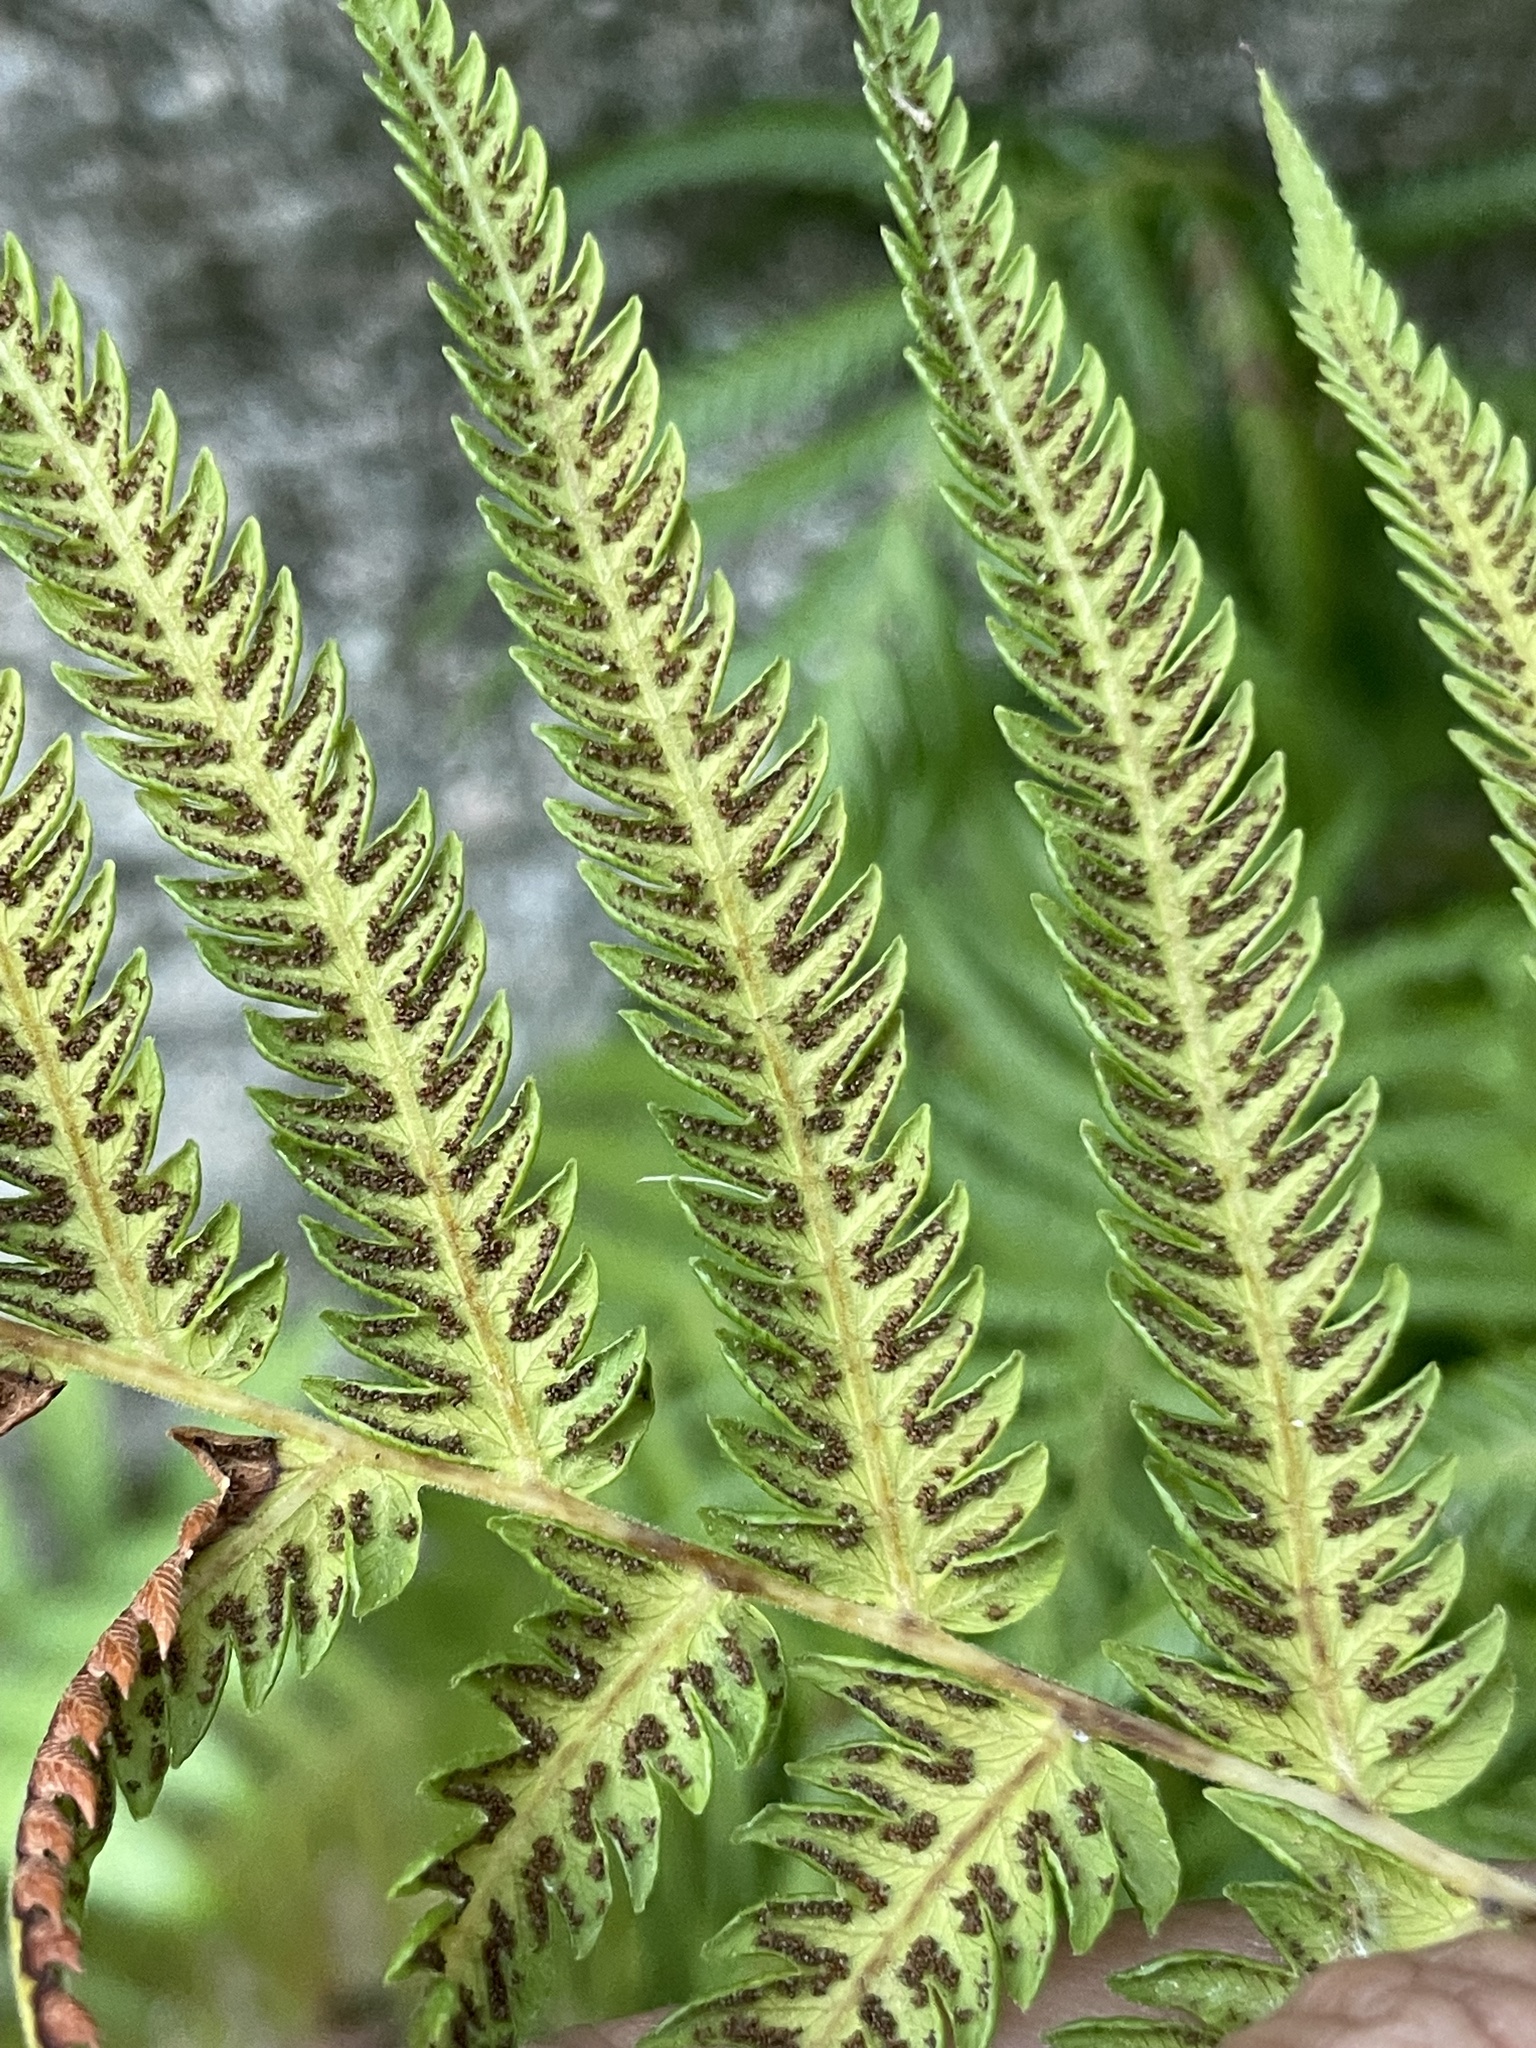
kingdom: Plantae
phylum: Tracheophyta
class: Polypodiopsida
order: Polypodiales
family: Thelypteridaceae
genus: Pelazoneuron
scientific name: Pelazoneuron puberulum
